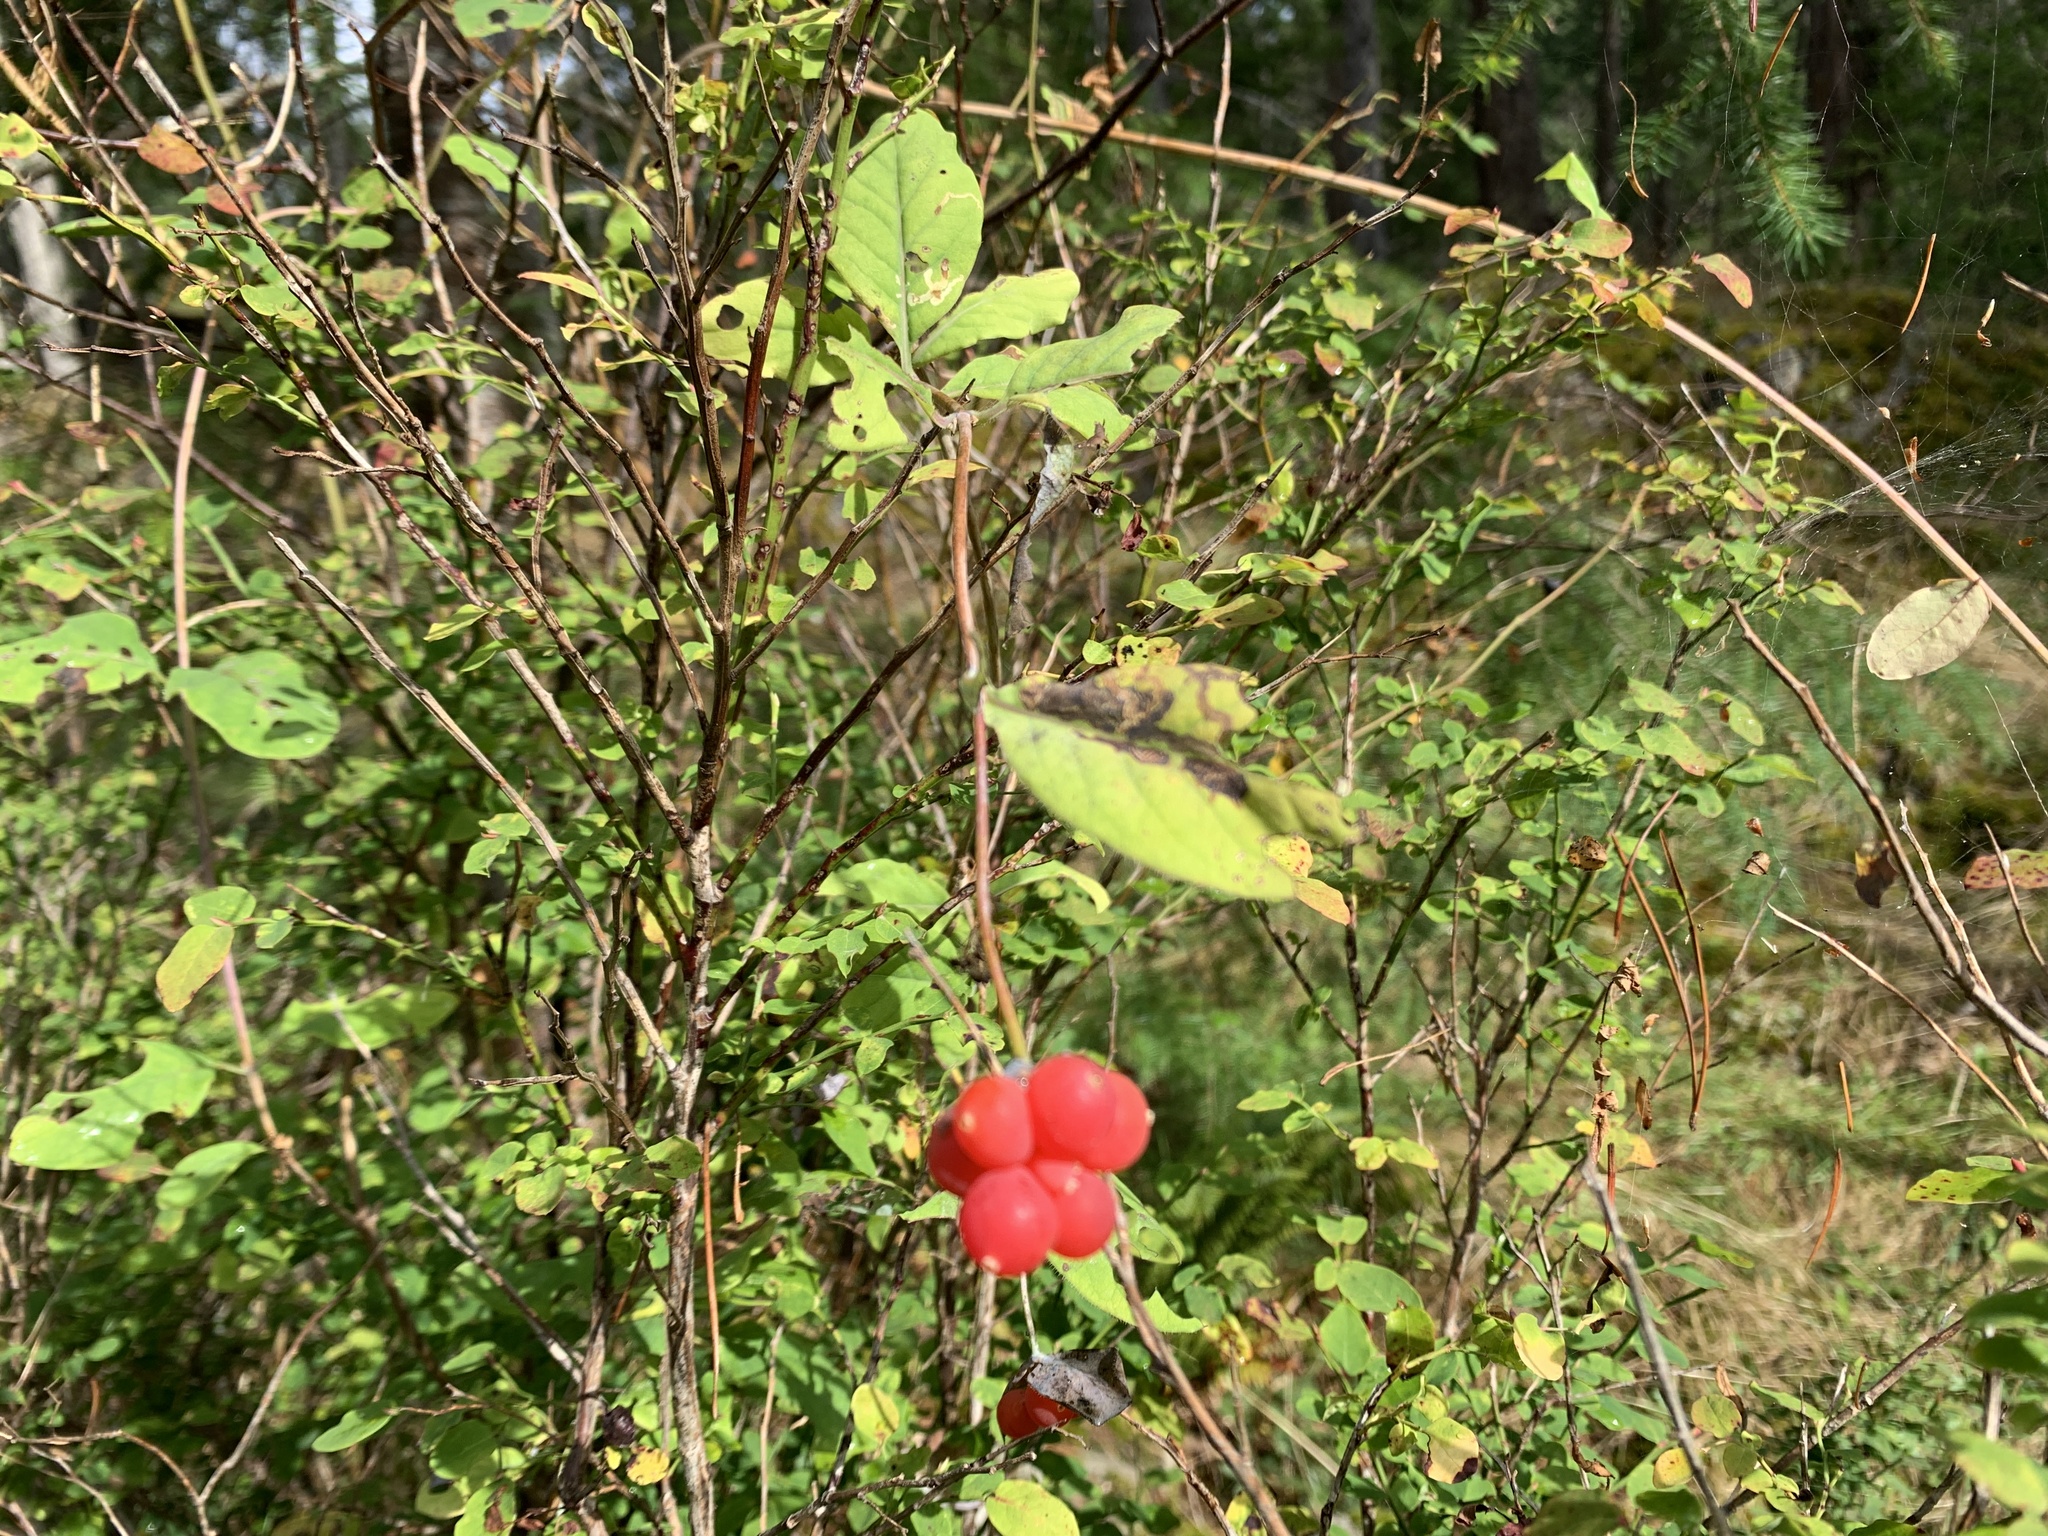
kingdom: Plantae
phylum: Tracheophyta
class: Magnoliopsida
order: Dipsacales
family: Caprifoliaceae
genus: Lonicera
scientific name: Lonicera ciliosa
